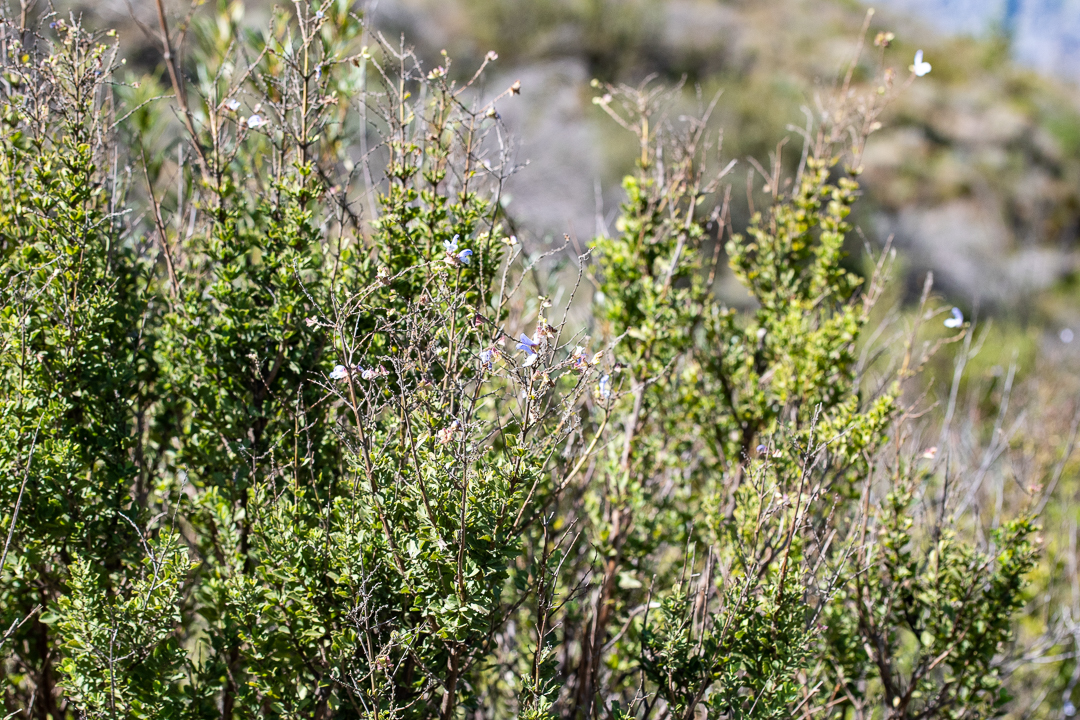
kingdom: Plantae
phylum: Tracheophyta
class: Magnoliopsida
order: Lamiales
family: Lamiaceae
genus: Salvia
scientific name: Salvia chamelaeagnea
